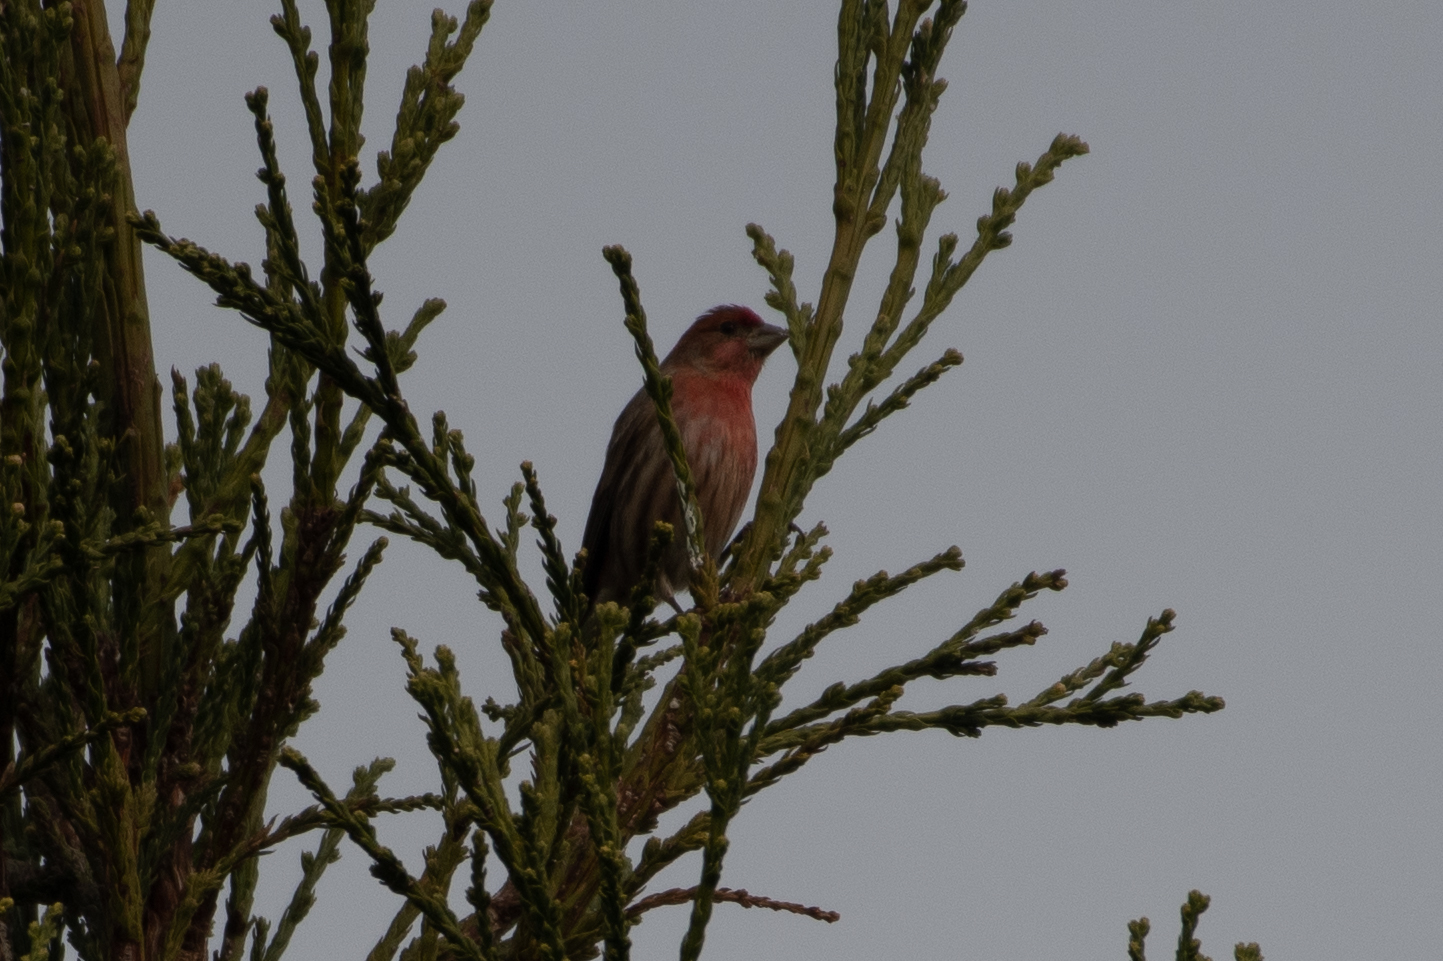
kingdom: Animalia
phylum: Chordata
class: Aves
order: Passeriformes
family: Fringillidae
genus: Haemorhous
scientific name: Haemorhous mexicanus
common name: House finch
